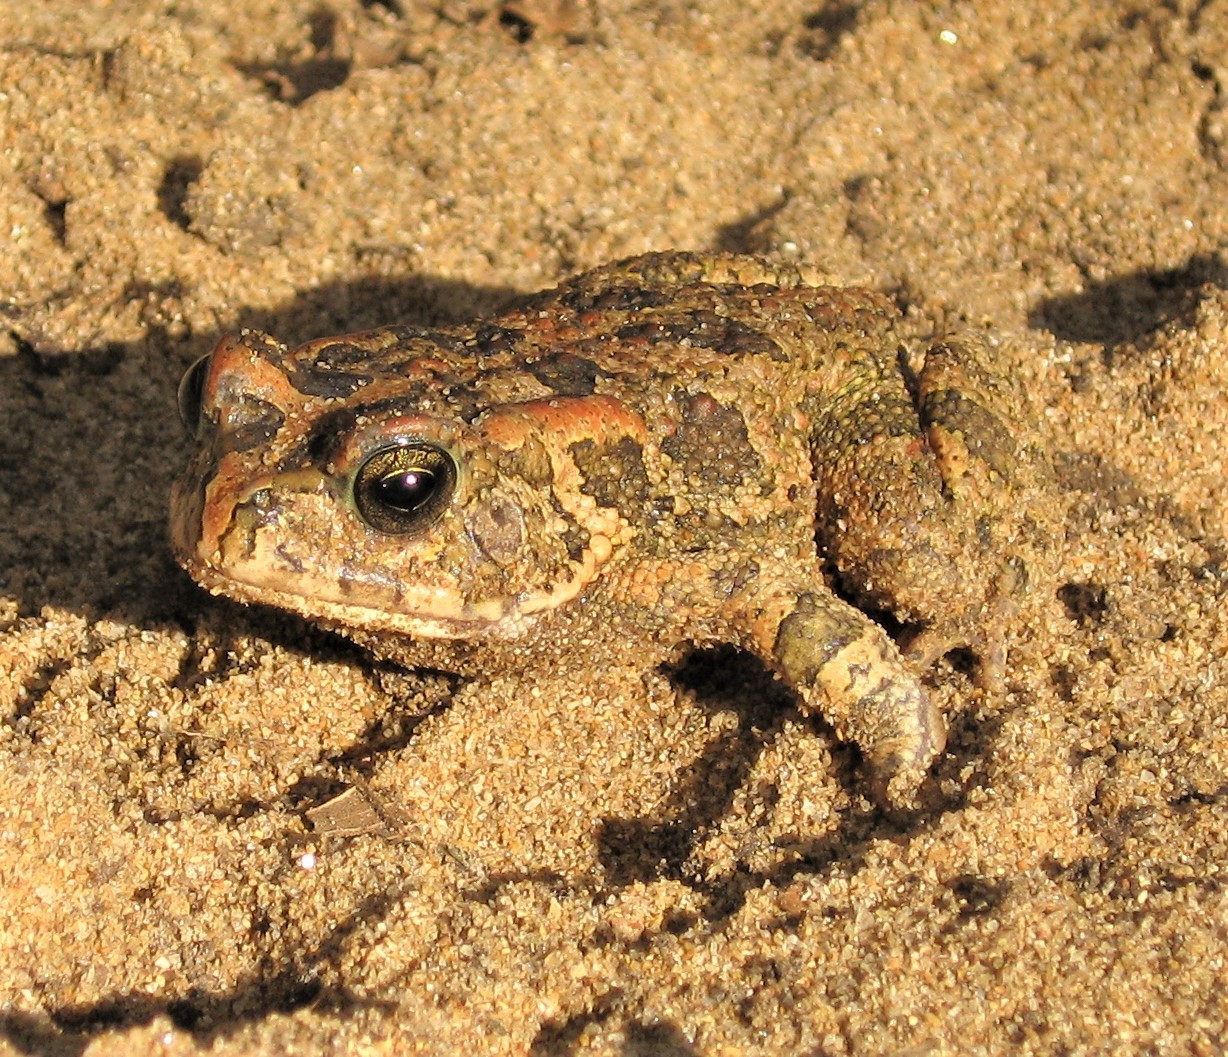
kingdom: Animalia
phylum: Chordata
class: Amphibia
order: Anura
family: Bufonidae
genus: Sclerophrys
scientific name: Sclerophrys gutturalis
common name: African common toad
